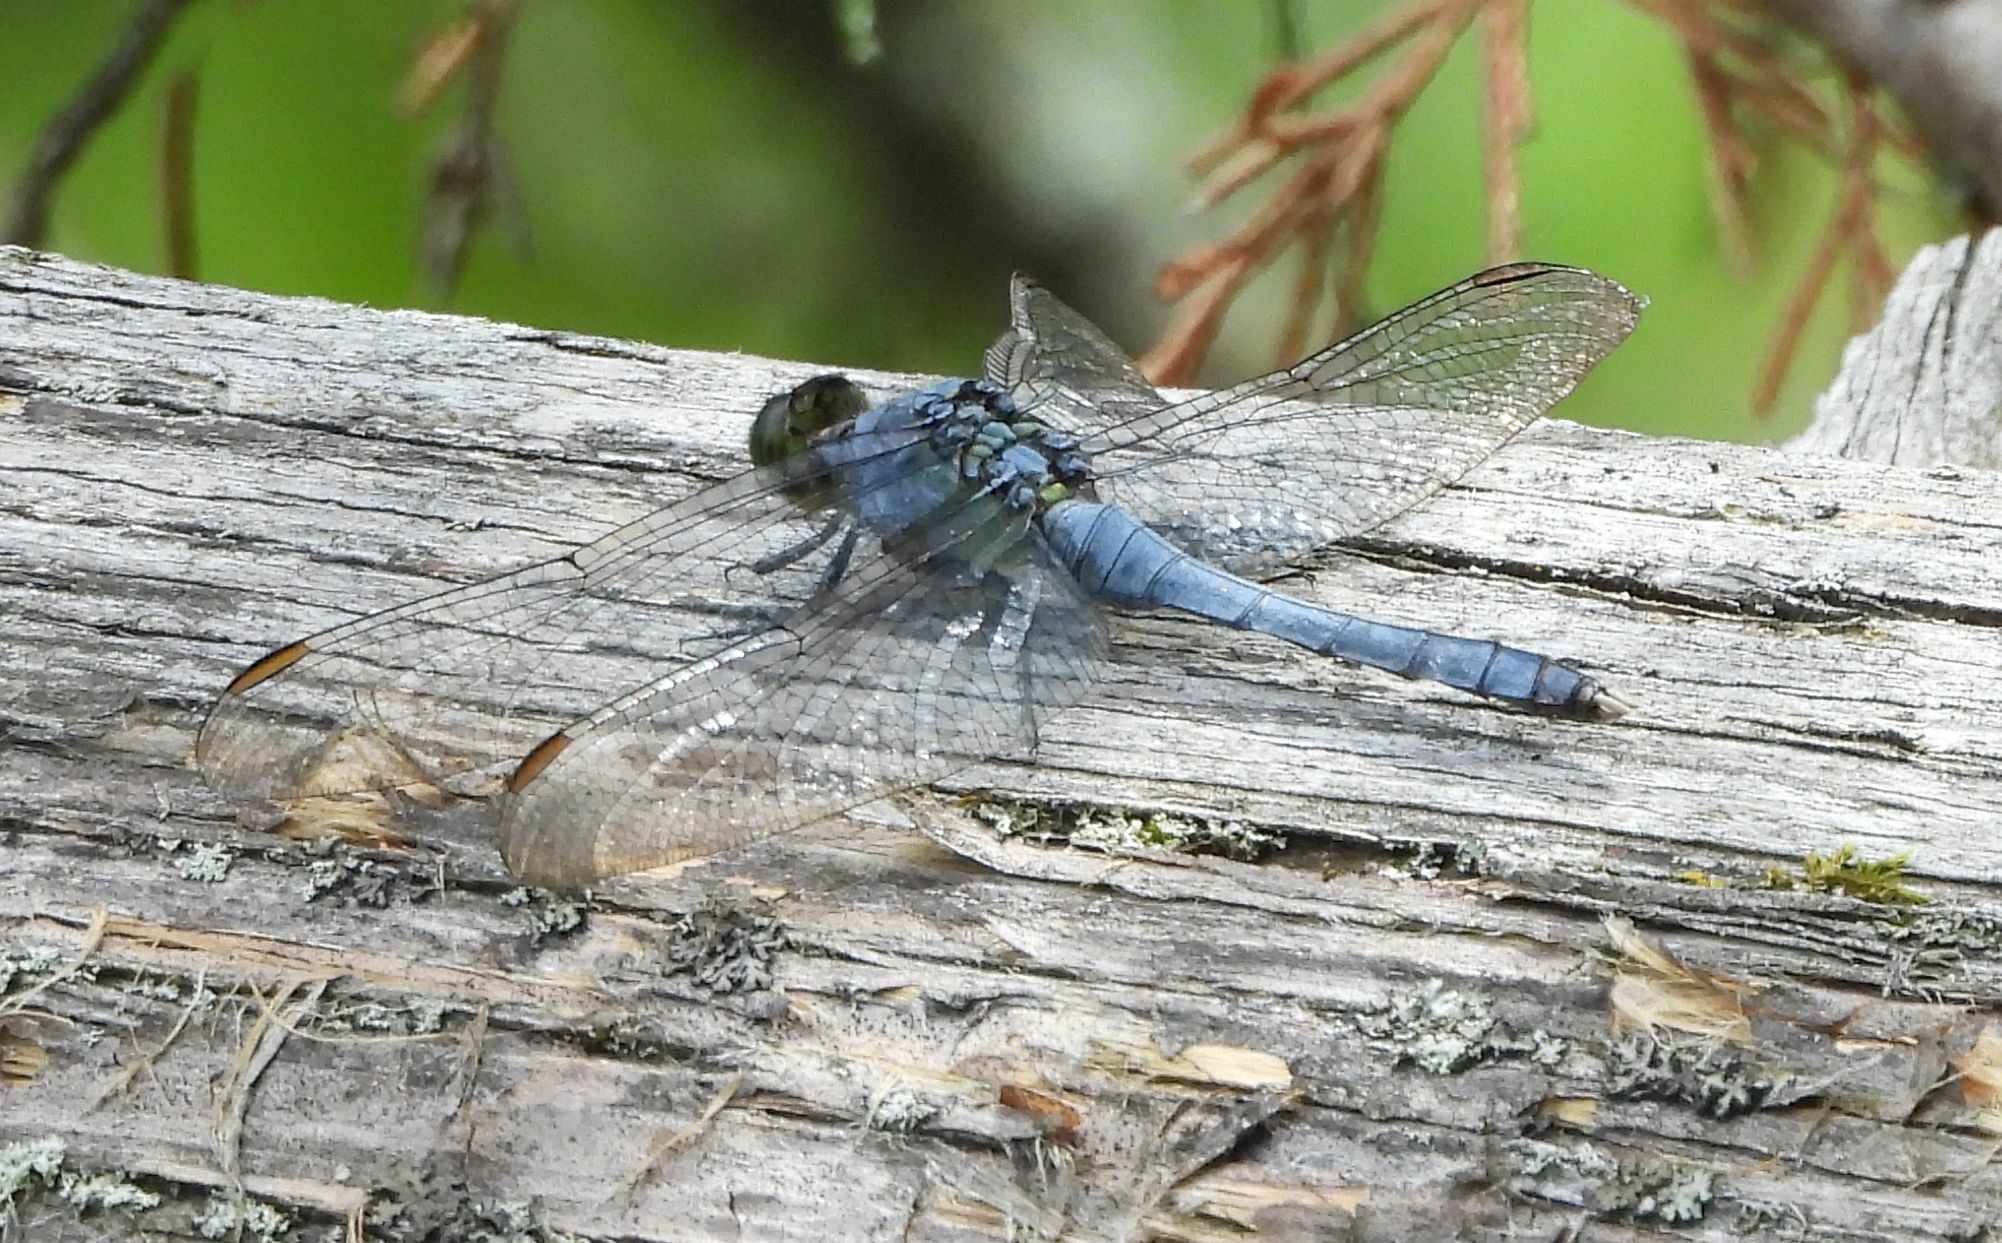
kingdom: Animalia
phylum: Arthropoda
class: Insecta
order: Odonata
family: Libellulidae
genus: Erythemis
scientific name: Erythemis simplicicollis
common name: Eastern pondhawk
